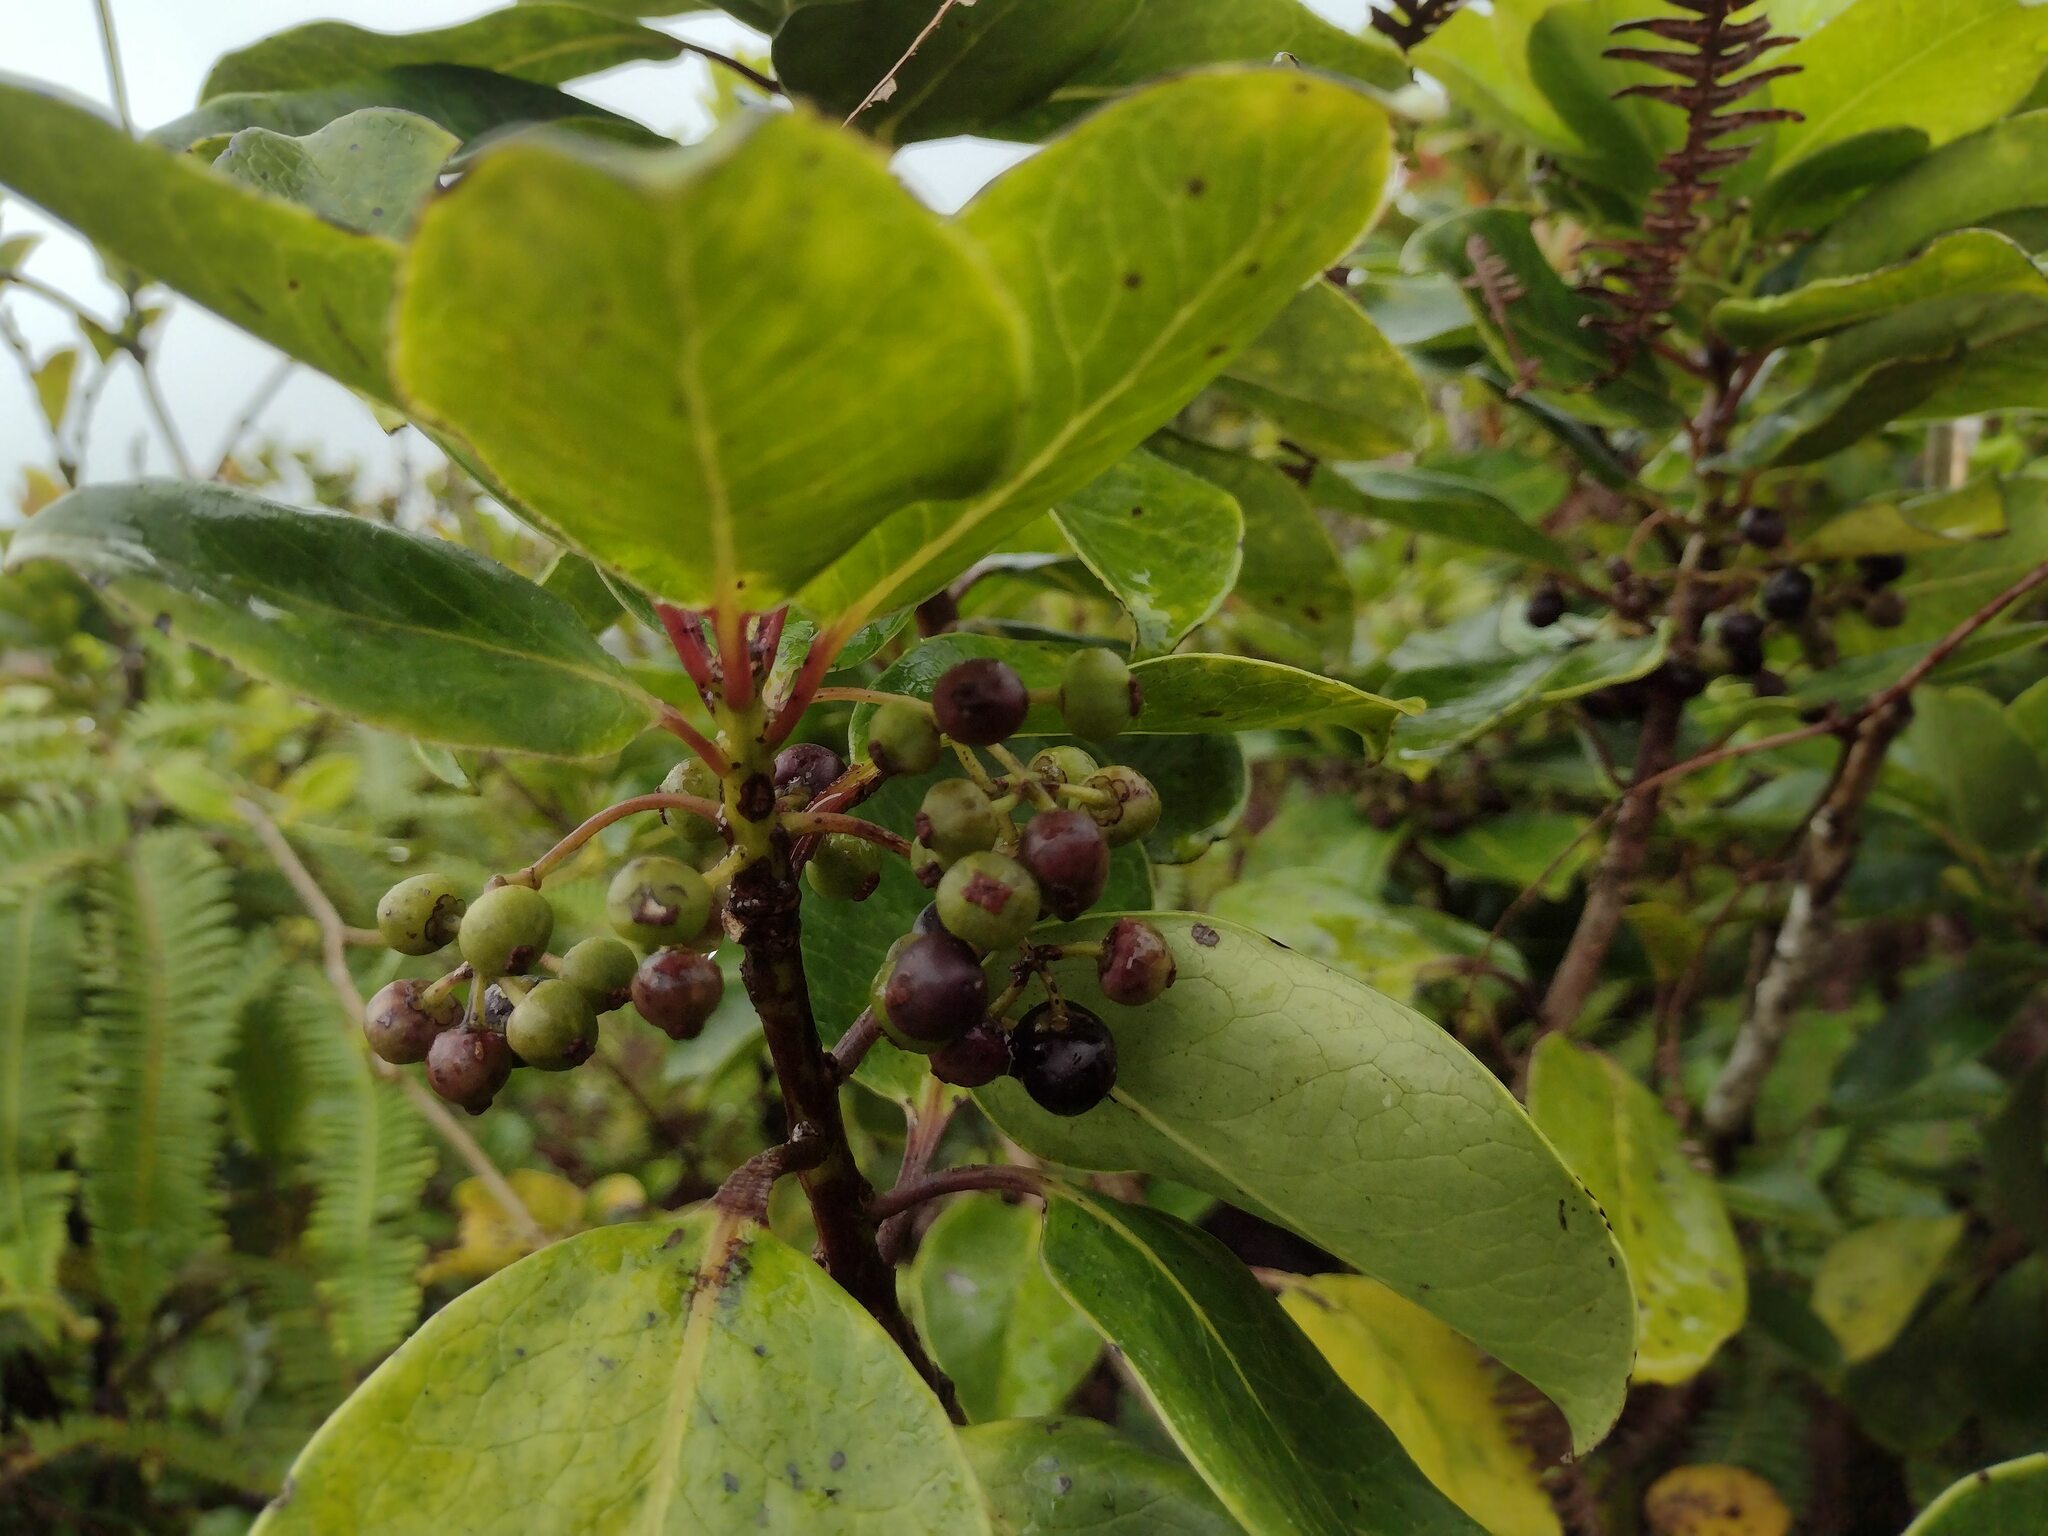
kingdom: Plantae
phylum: Tracheophyta
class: Magnoliopsida
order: Aquifoliales
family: Aquifoliaceae
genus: Ilex
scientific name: Ilex anomala
